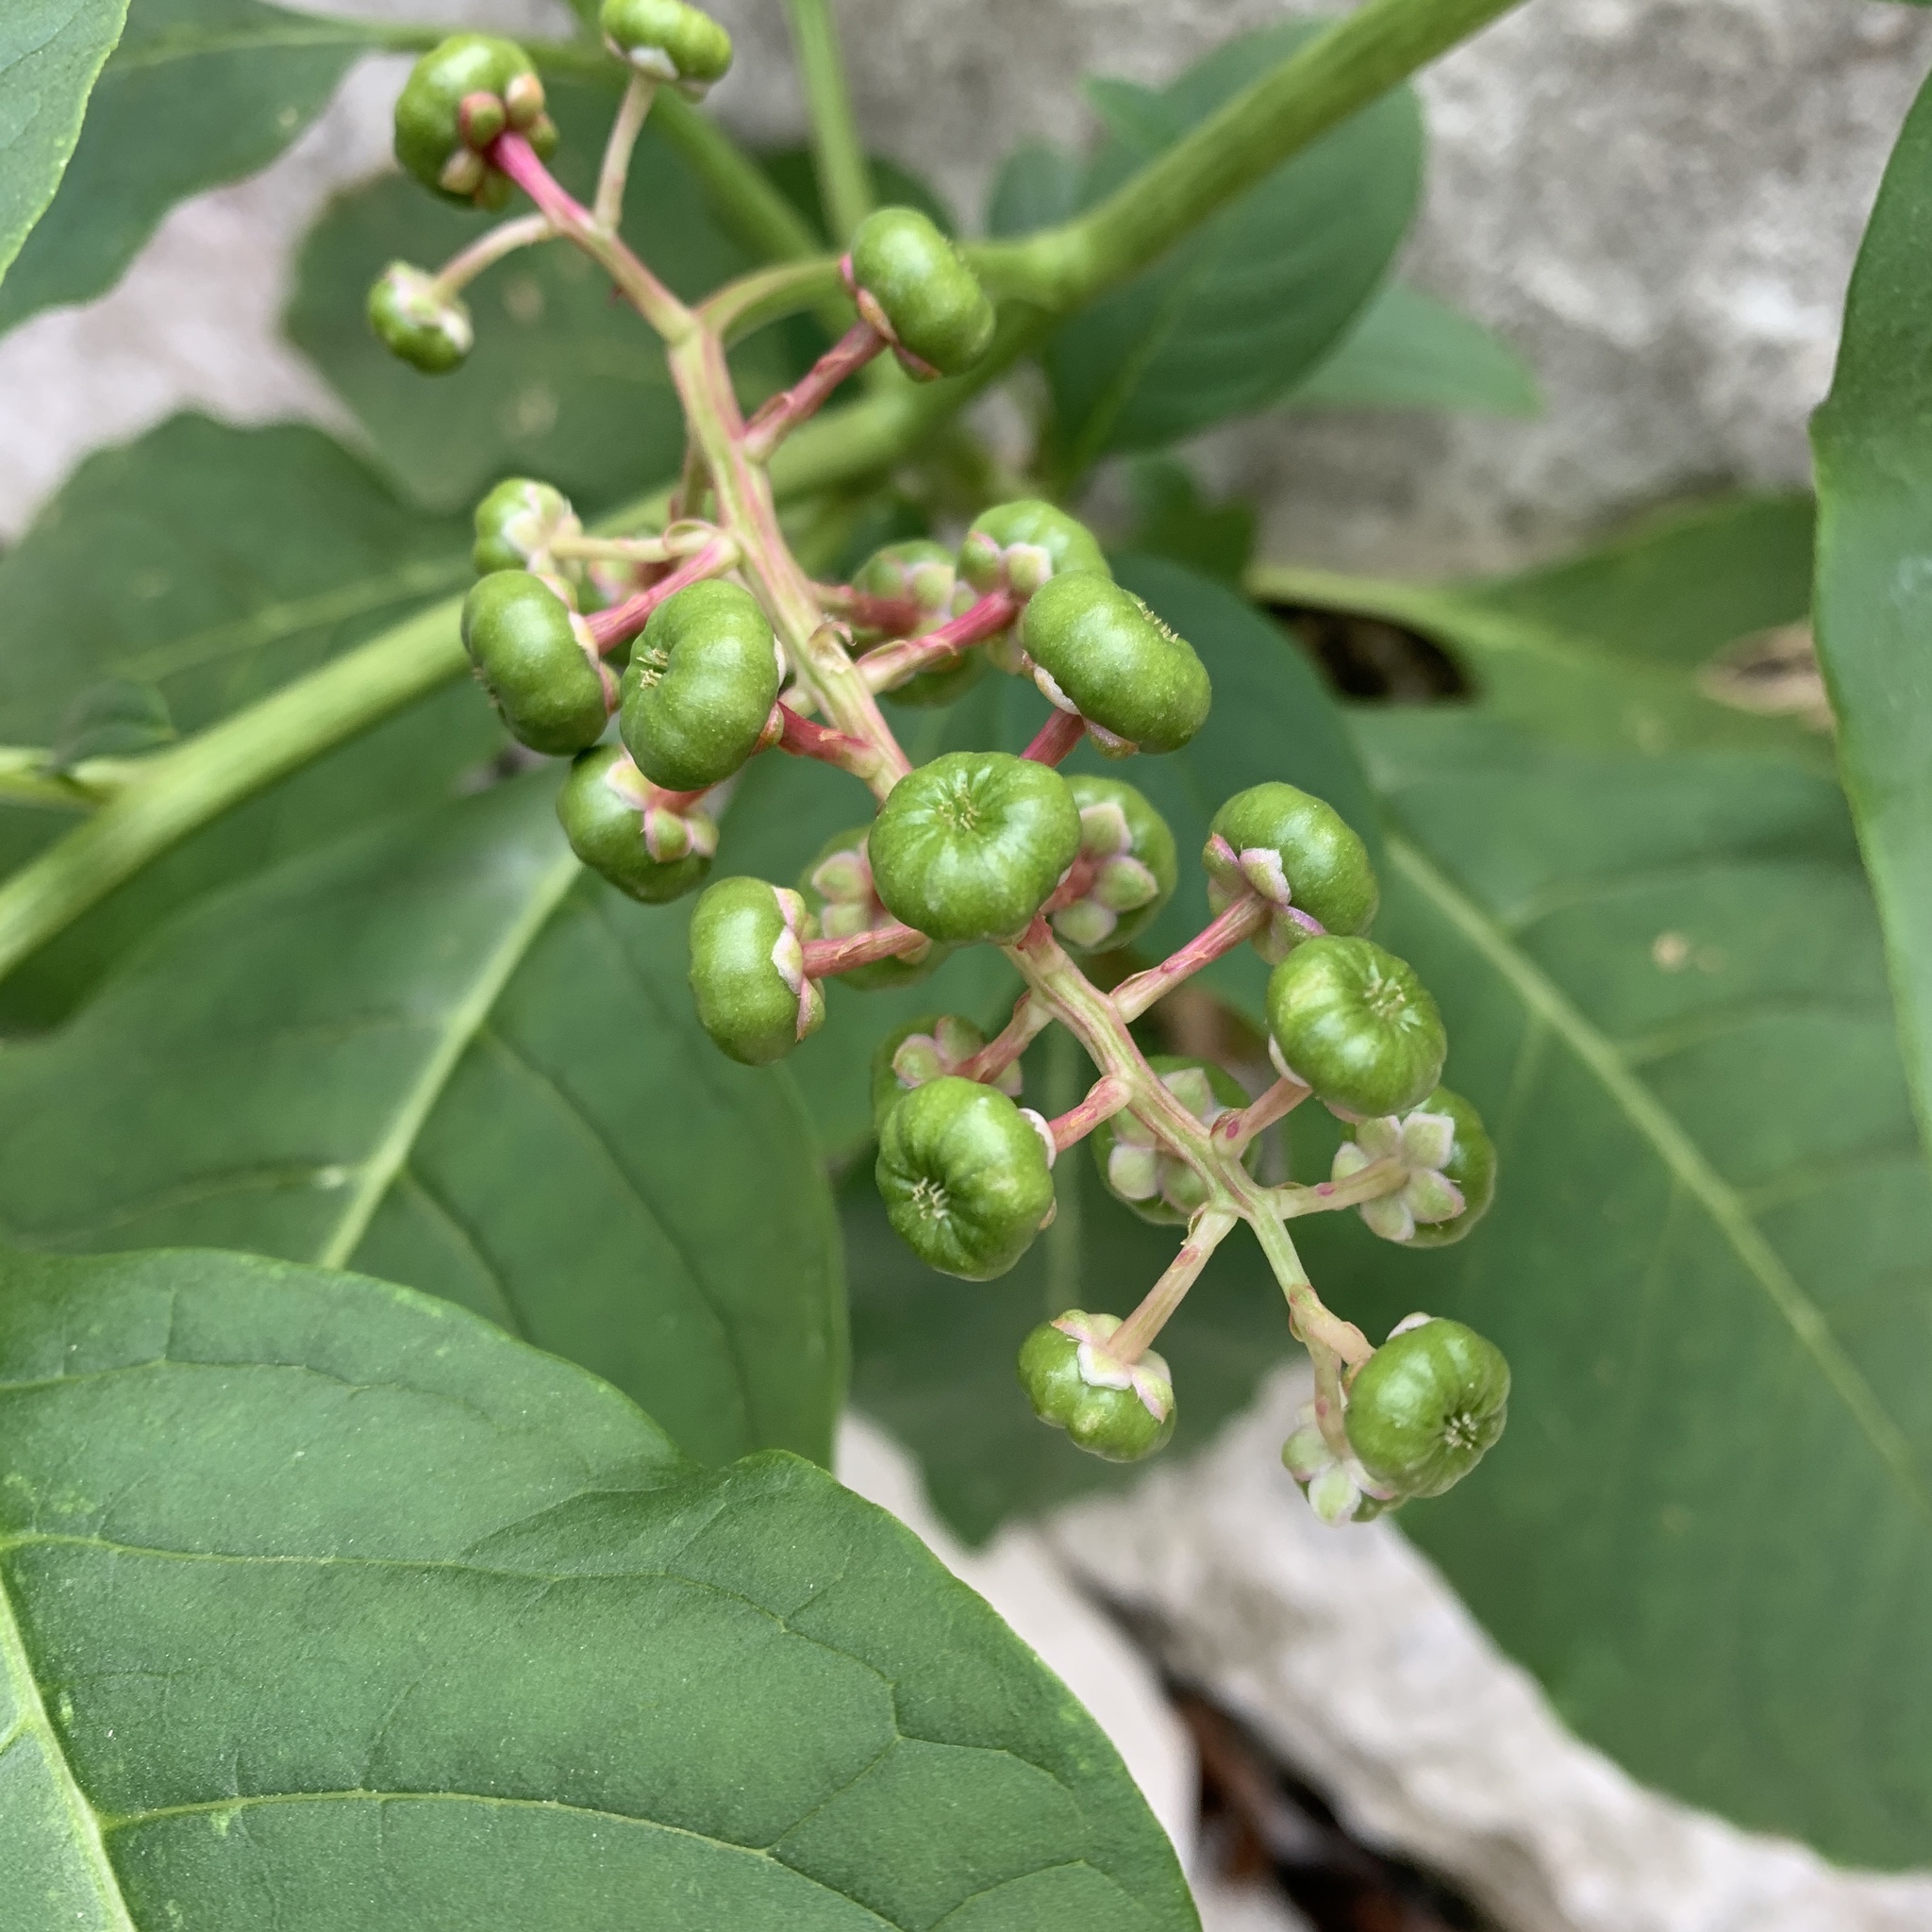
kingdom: Plantae
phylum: Tracheophyta
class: Magnoliopsida
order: Caryophyllales
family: Phytolaccaceae
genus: Phytolacca
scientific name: Phytolacca americana
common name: American pokeweed
